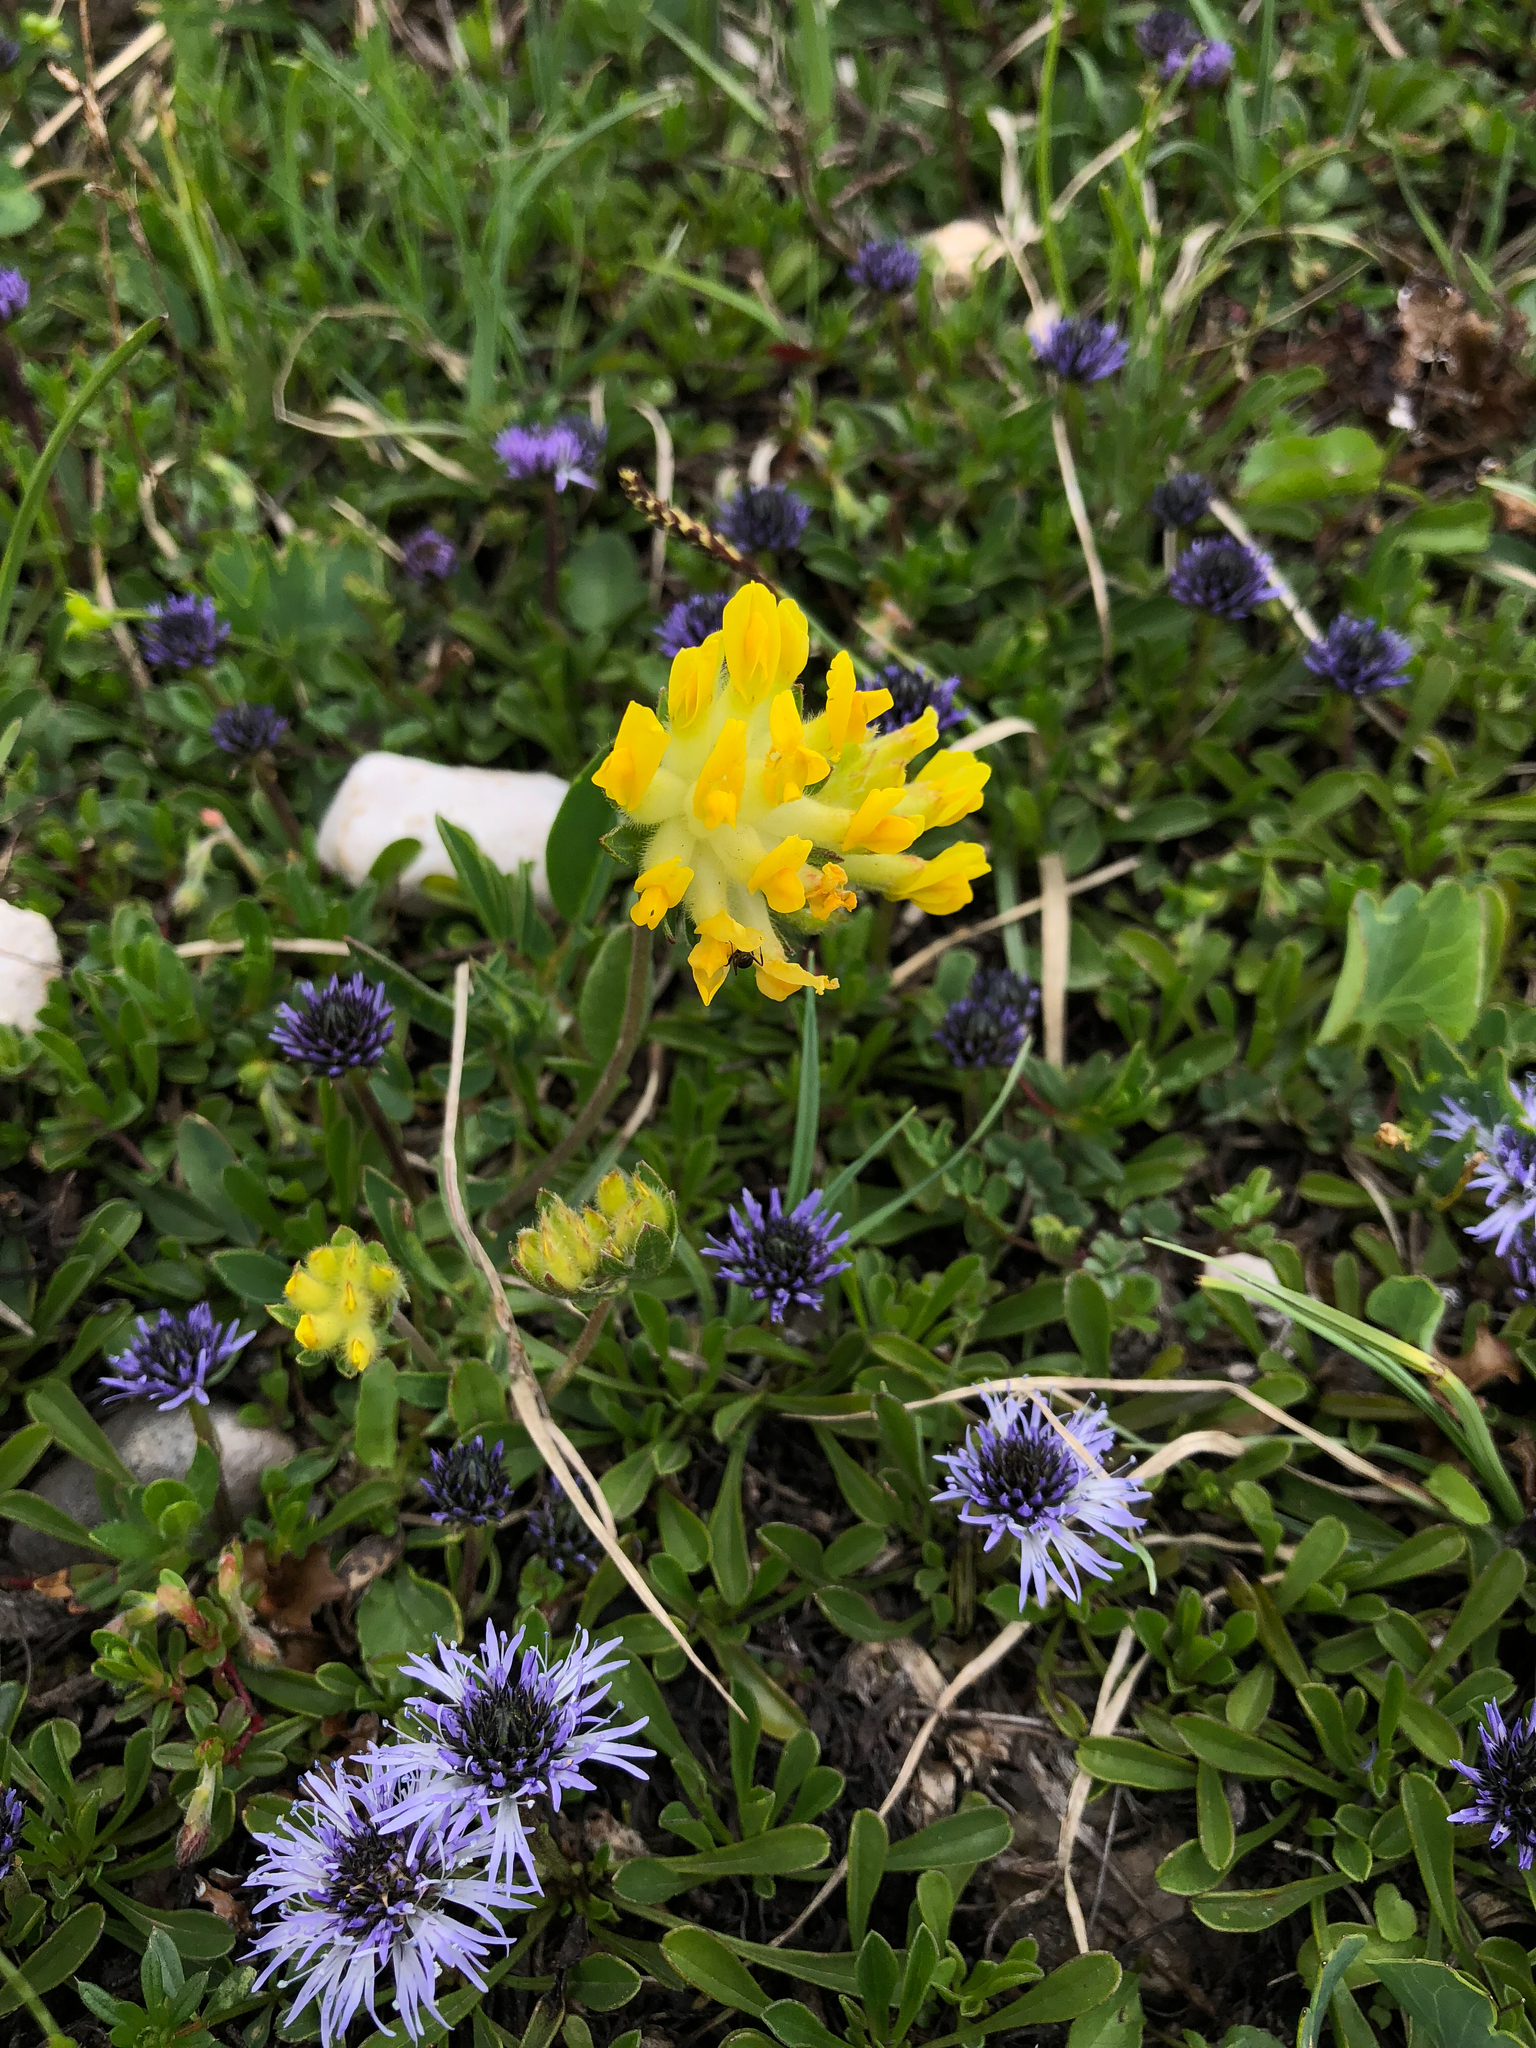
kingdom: Plantae
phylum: Tracheophyta
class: Magnoliopsida
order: Fabales
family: Fabaceae
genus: Anthyllis
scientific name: Anthyllis vulneraria
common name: Kidney vetch
